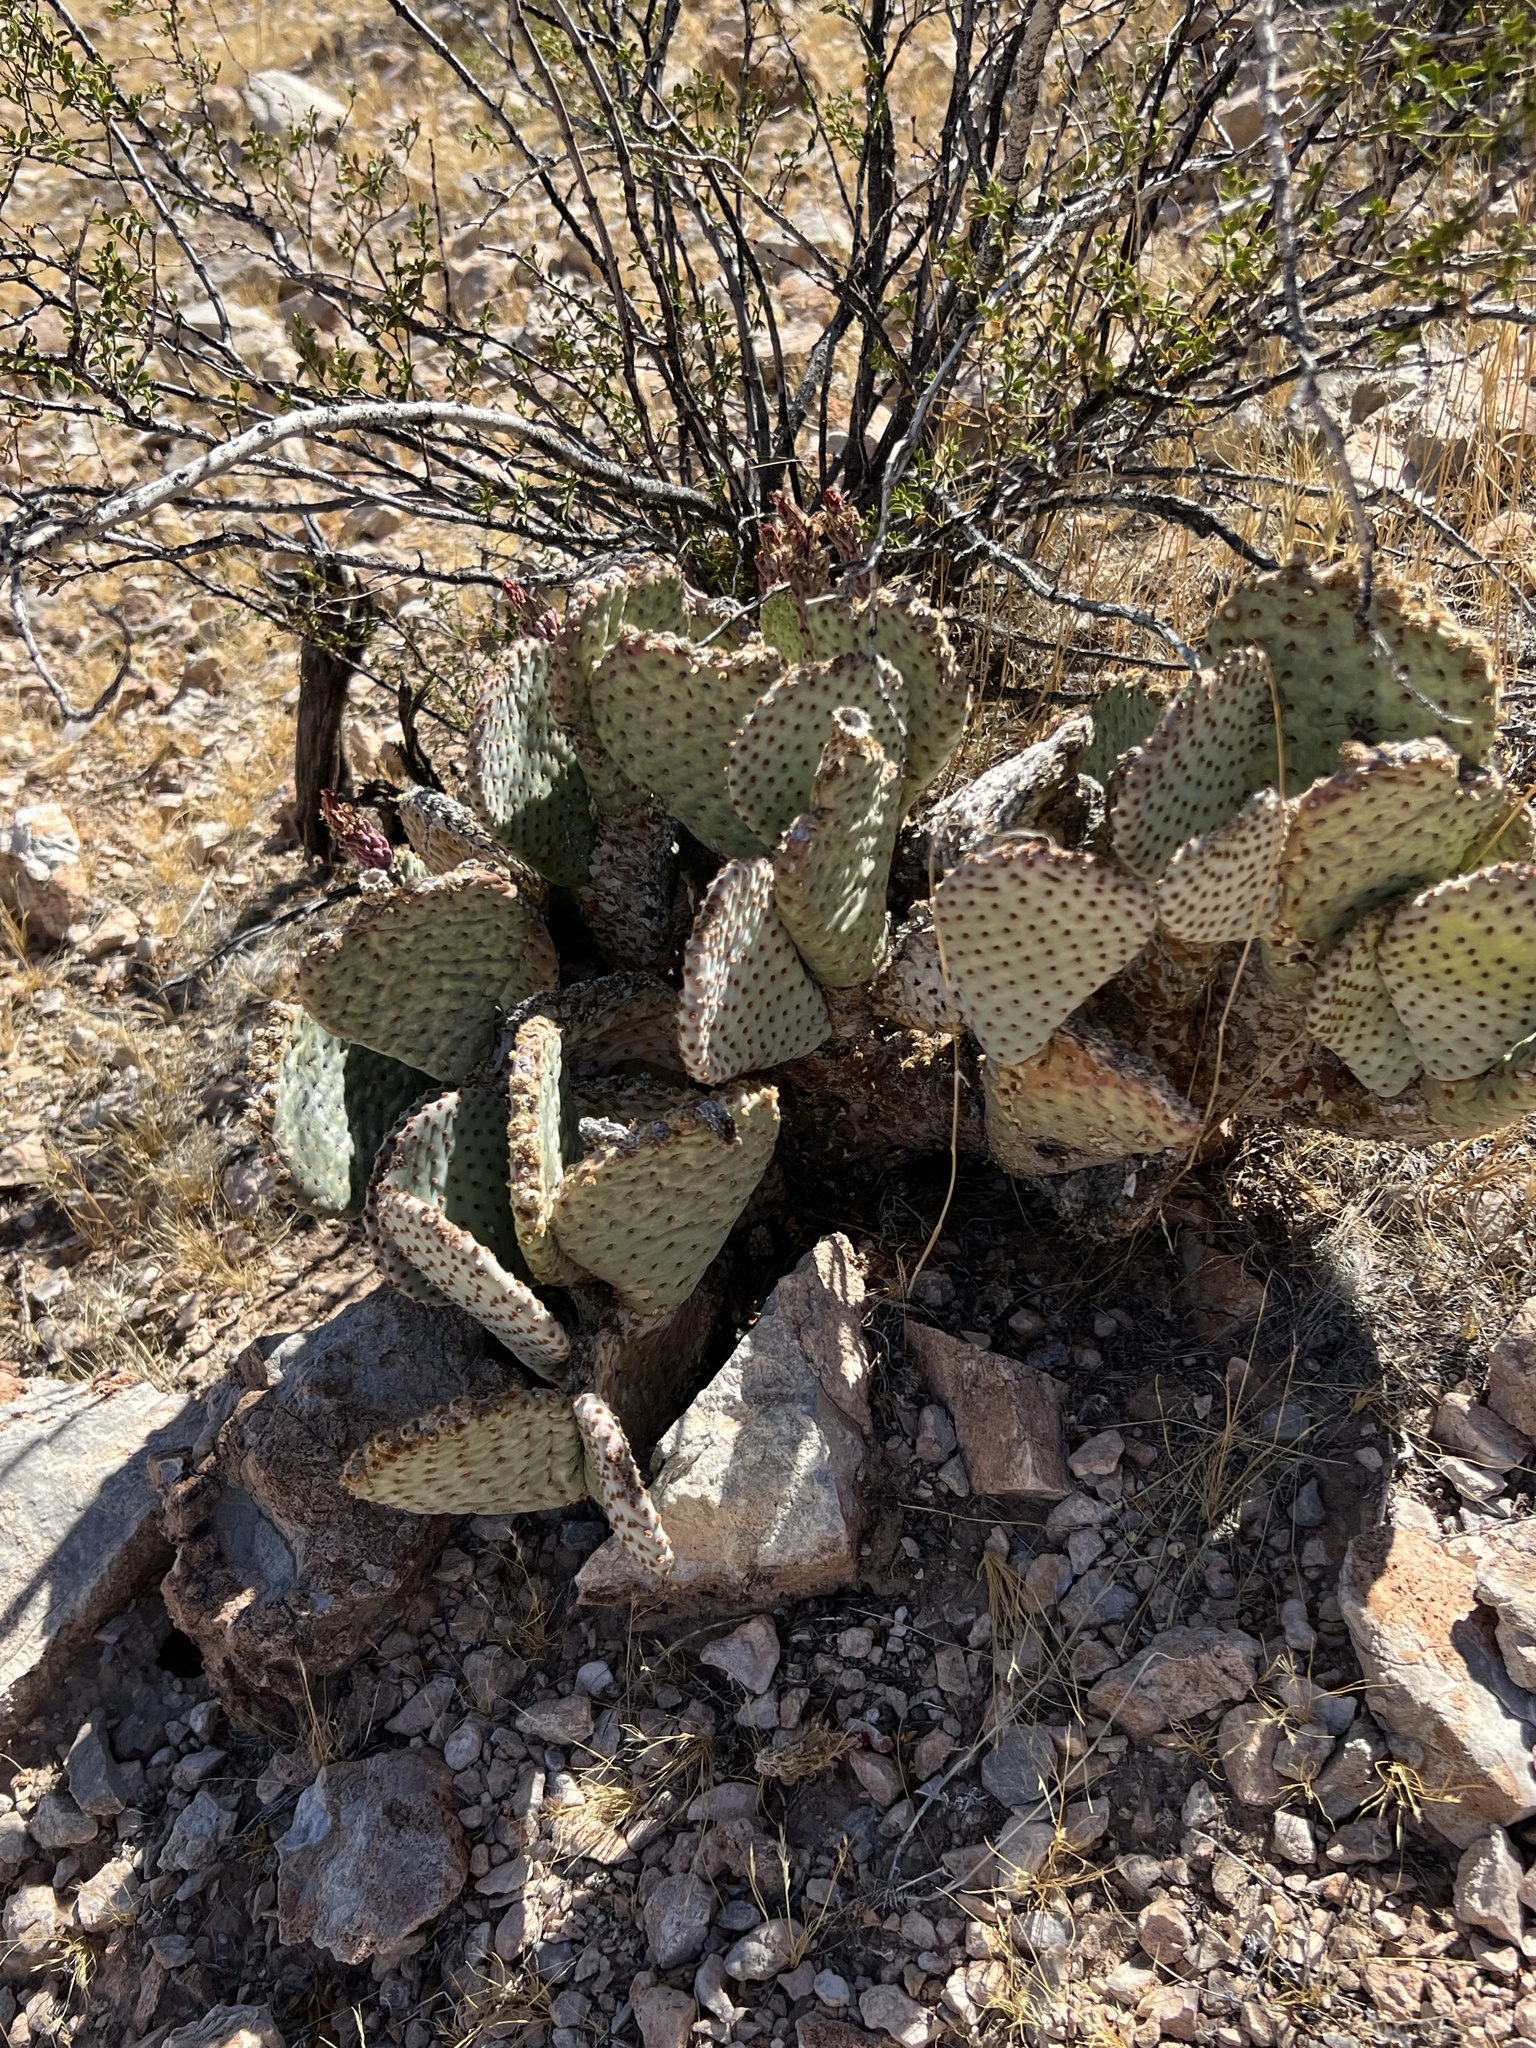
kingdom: Plantae
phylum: Tracheophyta
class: Magnoliopsida
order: Caryophyllales
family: Cactaceae
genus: Opuntia
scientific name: Opuntia basilaris
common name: Beavertail prickly-pear
